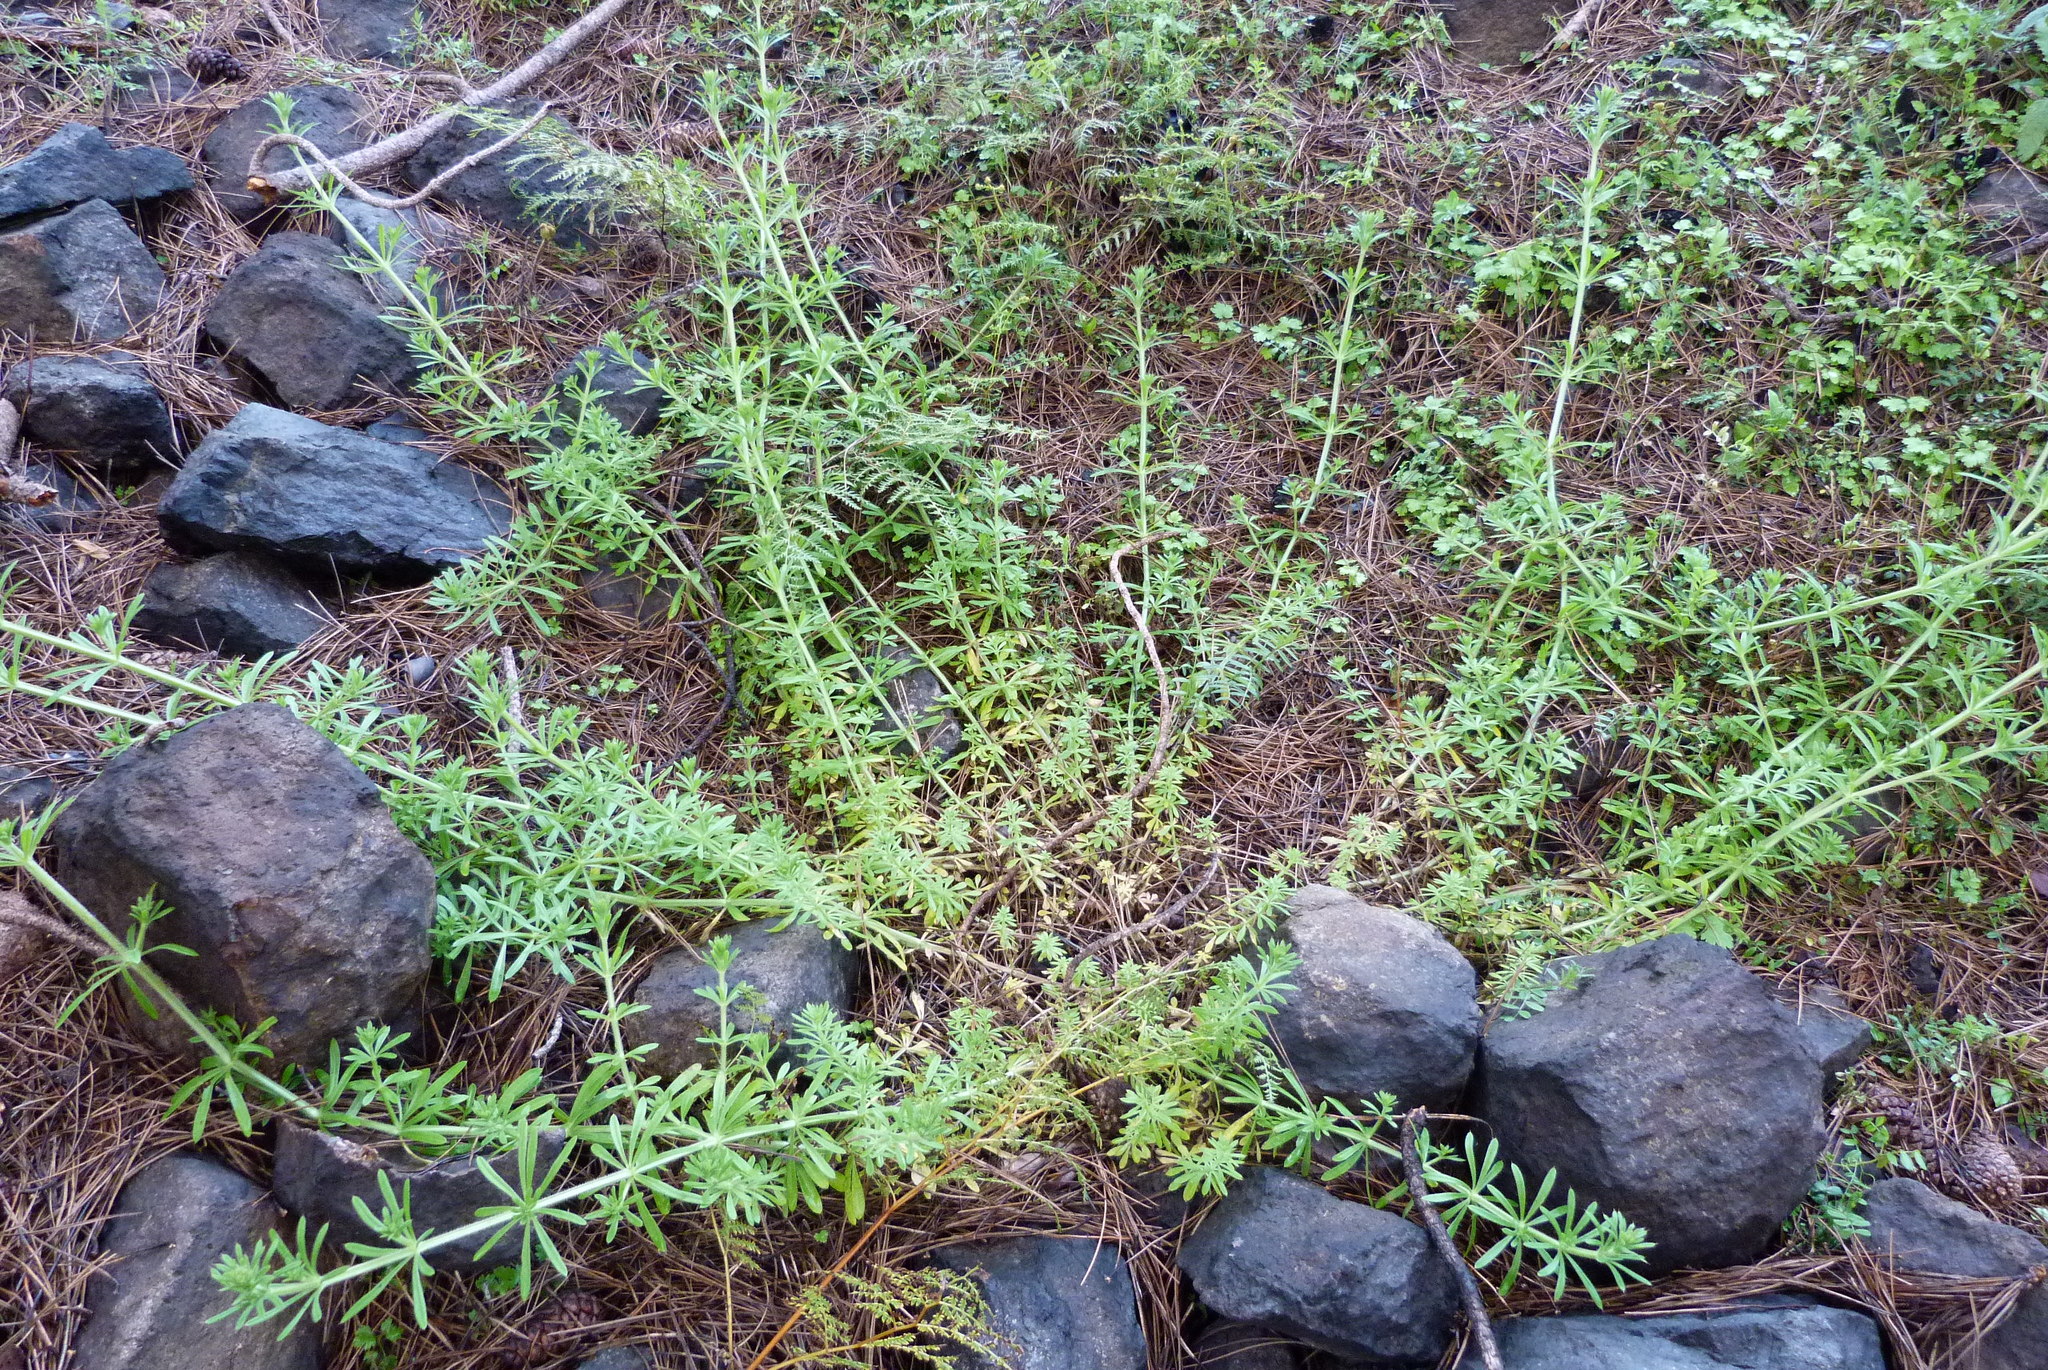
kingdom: Plantae
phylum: Tracheophyta
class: Magnoliopsida
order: Gentianales
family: Rubiaceae
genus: Galium
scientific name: Galium aparine
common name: Cleavers
